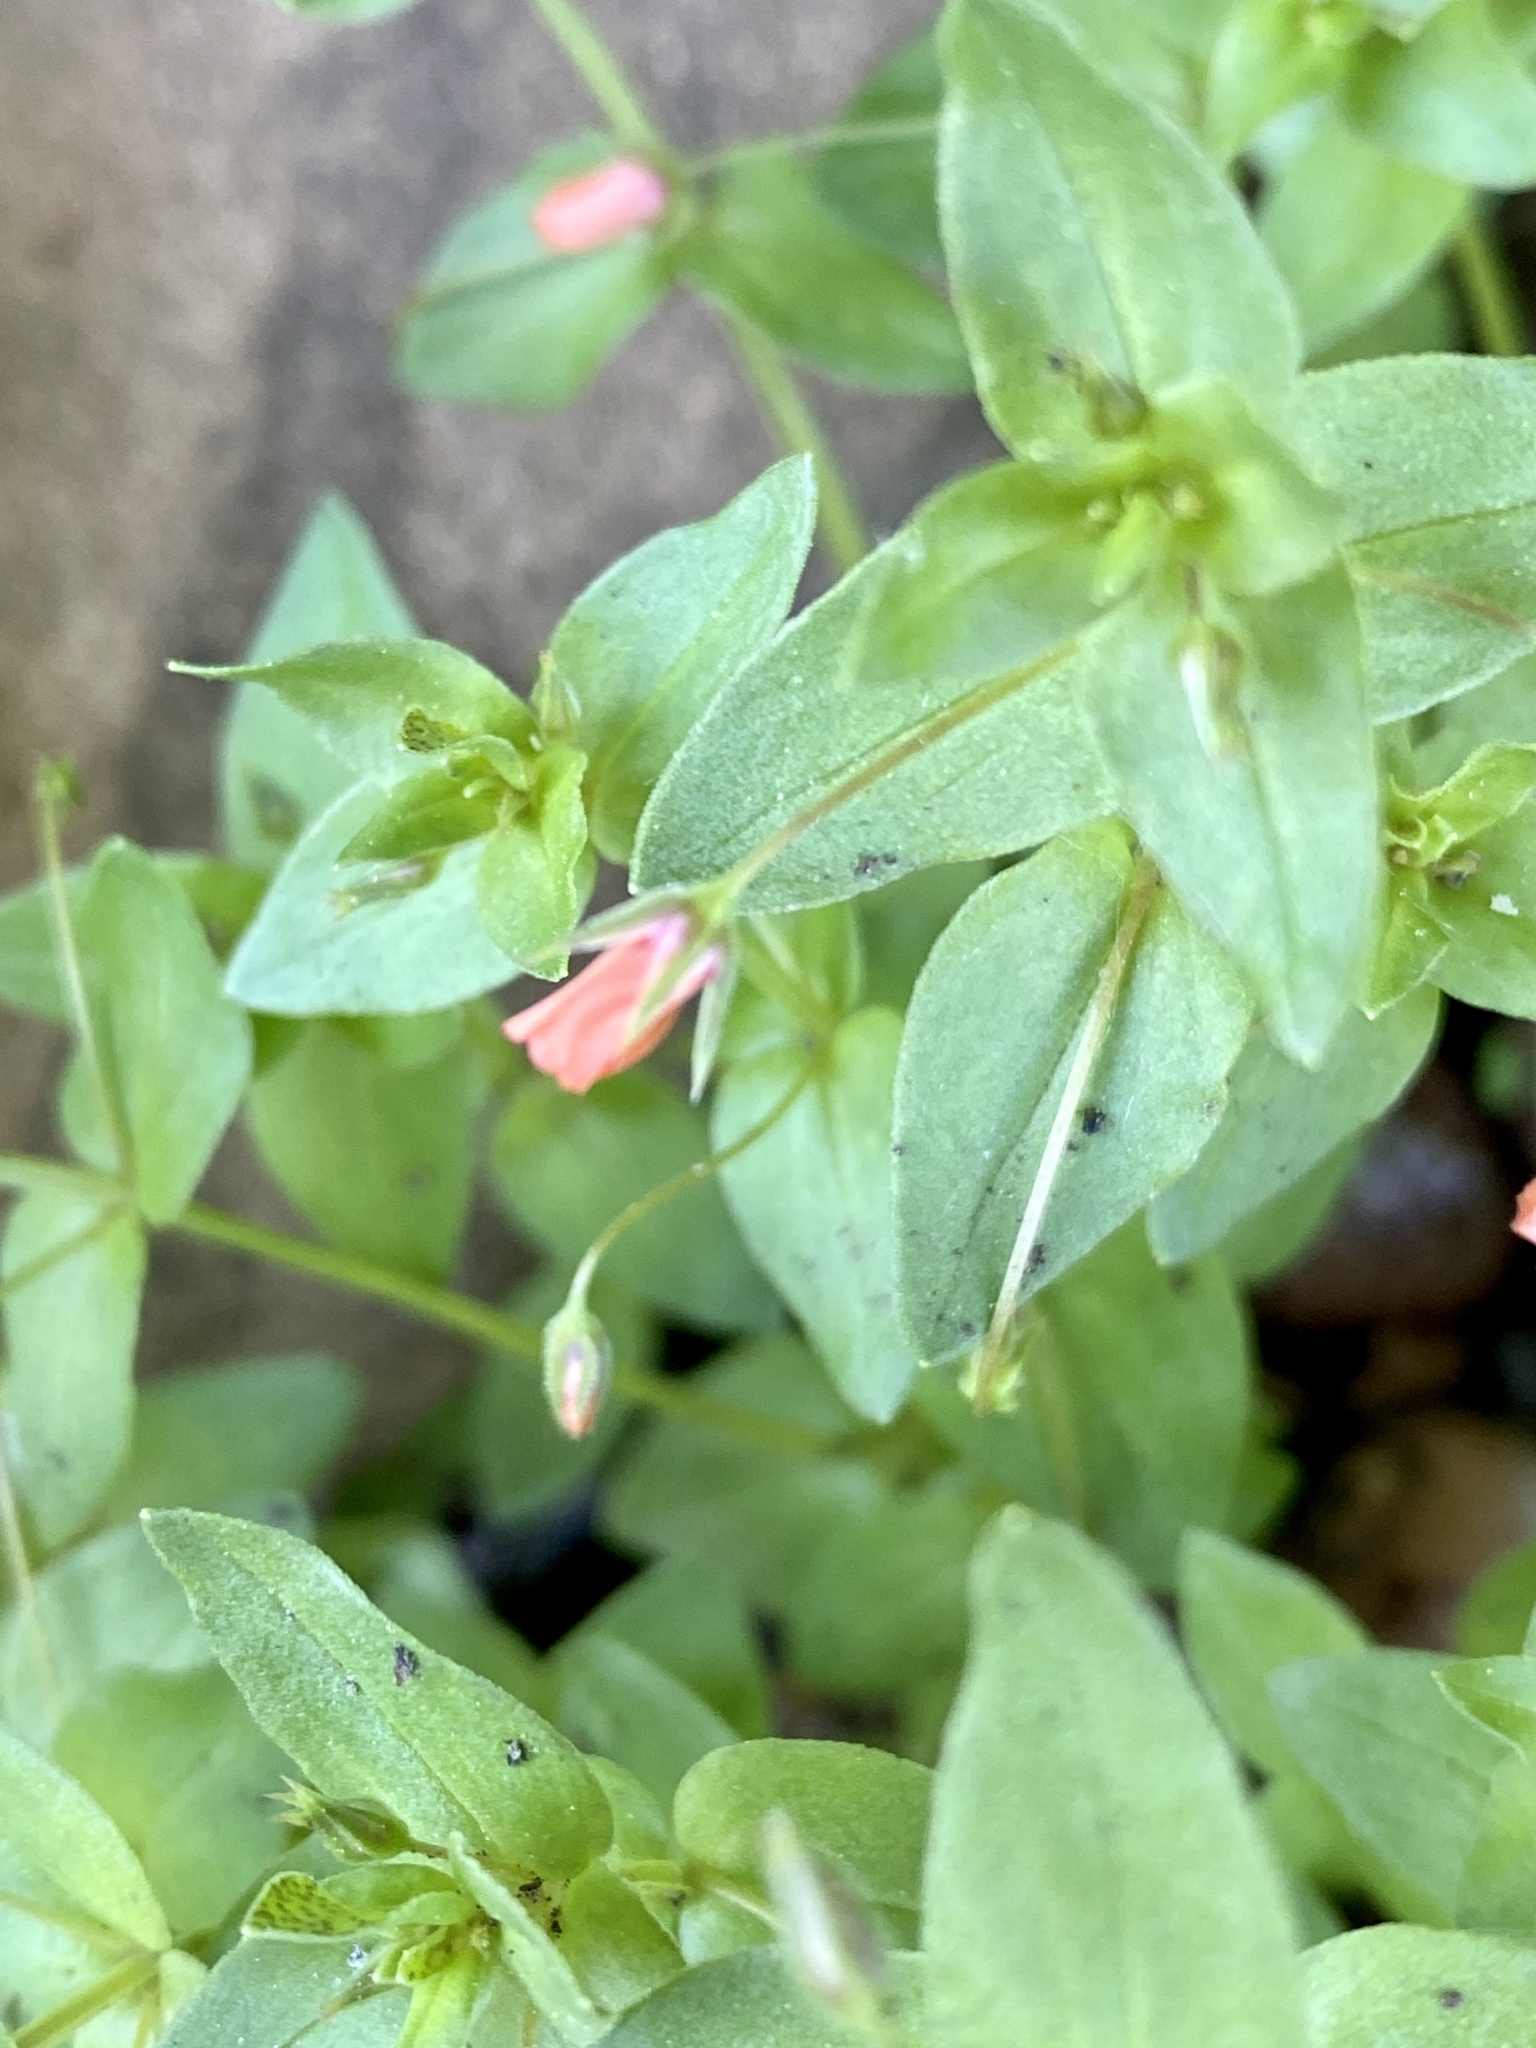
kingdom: Plantae
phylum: Tracheophyta
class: Magnoliopsida
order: Ericales
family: Primulaceae
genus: Lysimachia
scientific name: Lysimachia arvensis
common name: Scarlet pimpernel
